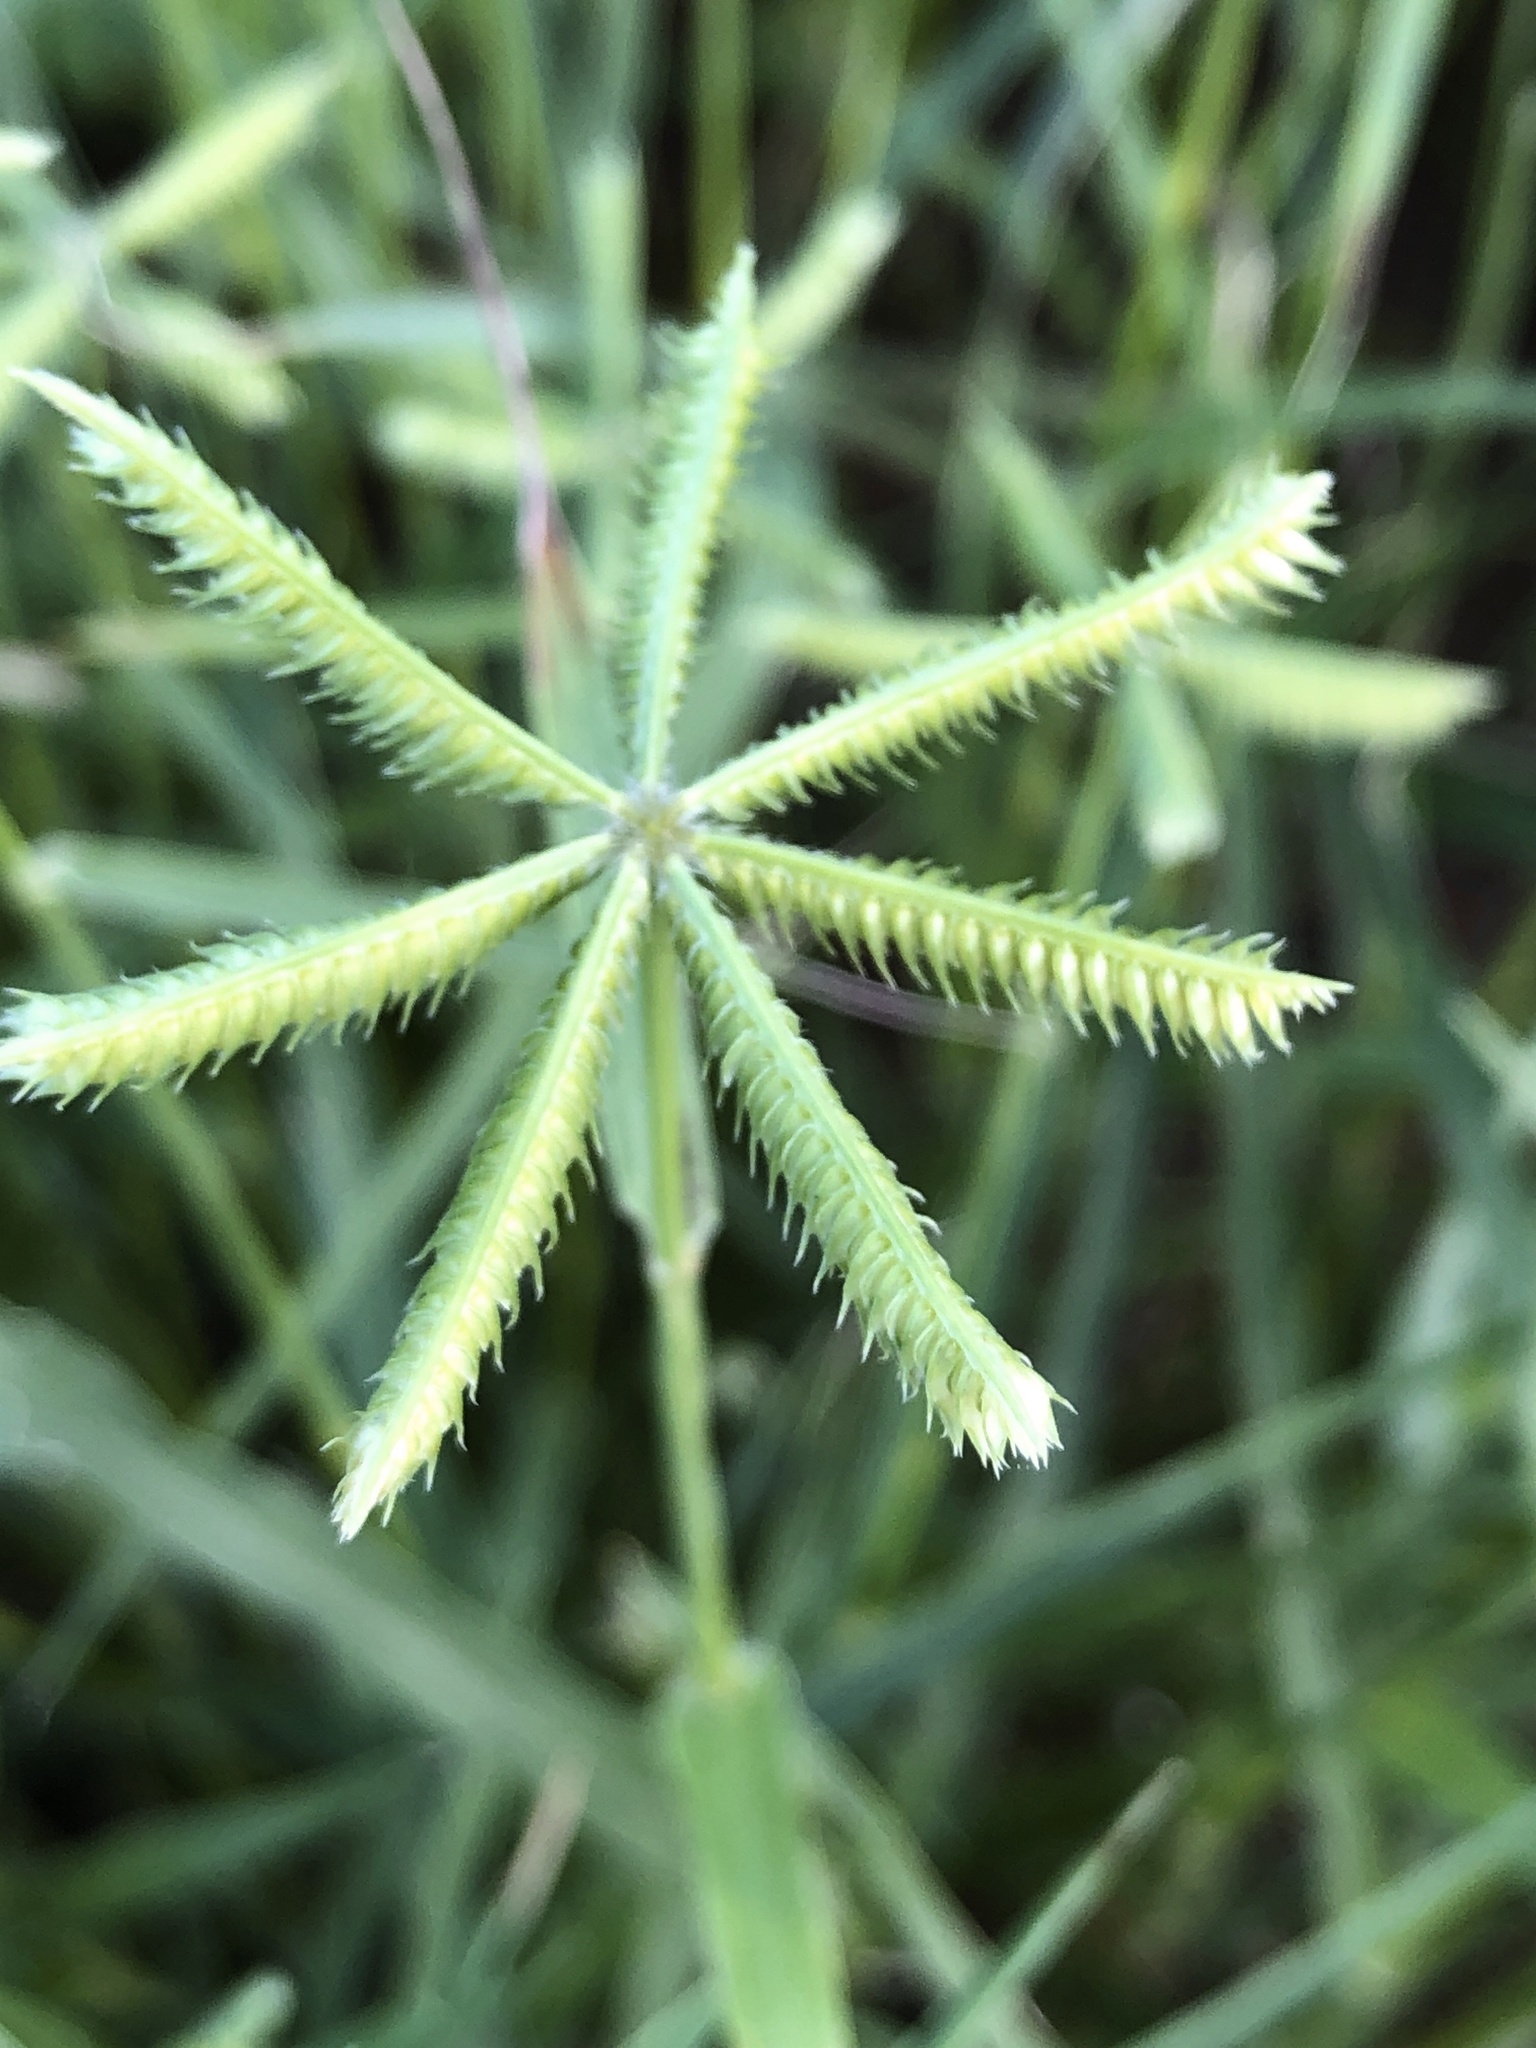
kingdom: Plantae
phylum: Tracheophyta
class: Liliopsida
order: Poales
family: Poaceae
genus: Dactyloctenium
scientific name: Dactyloctenium aegyptium
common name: Egyptian grass
